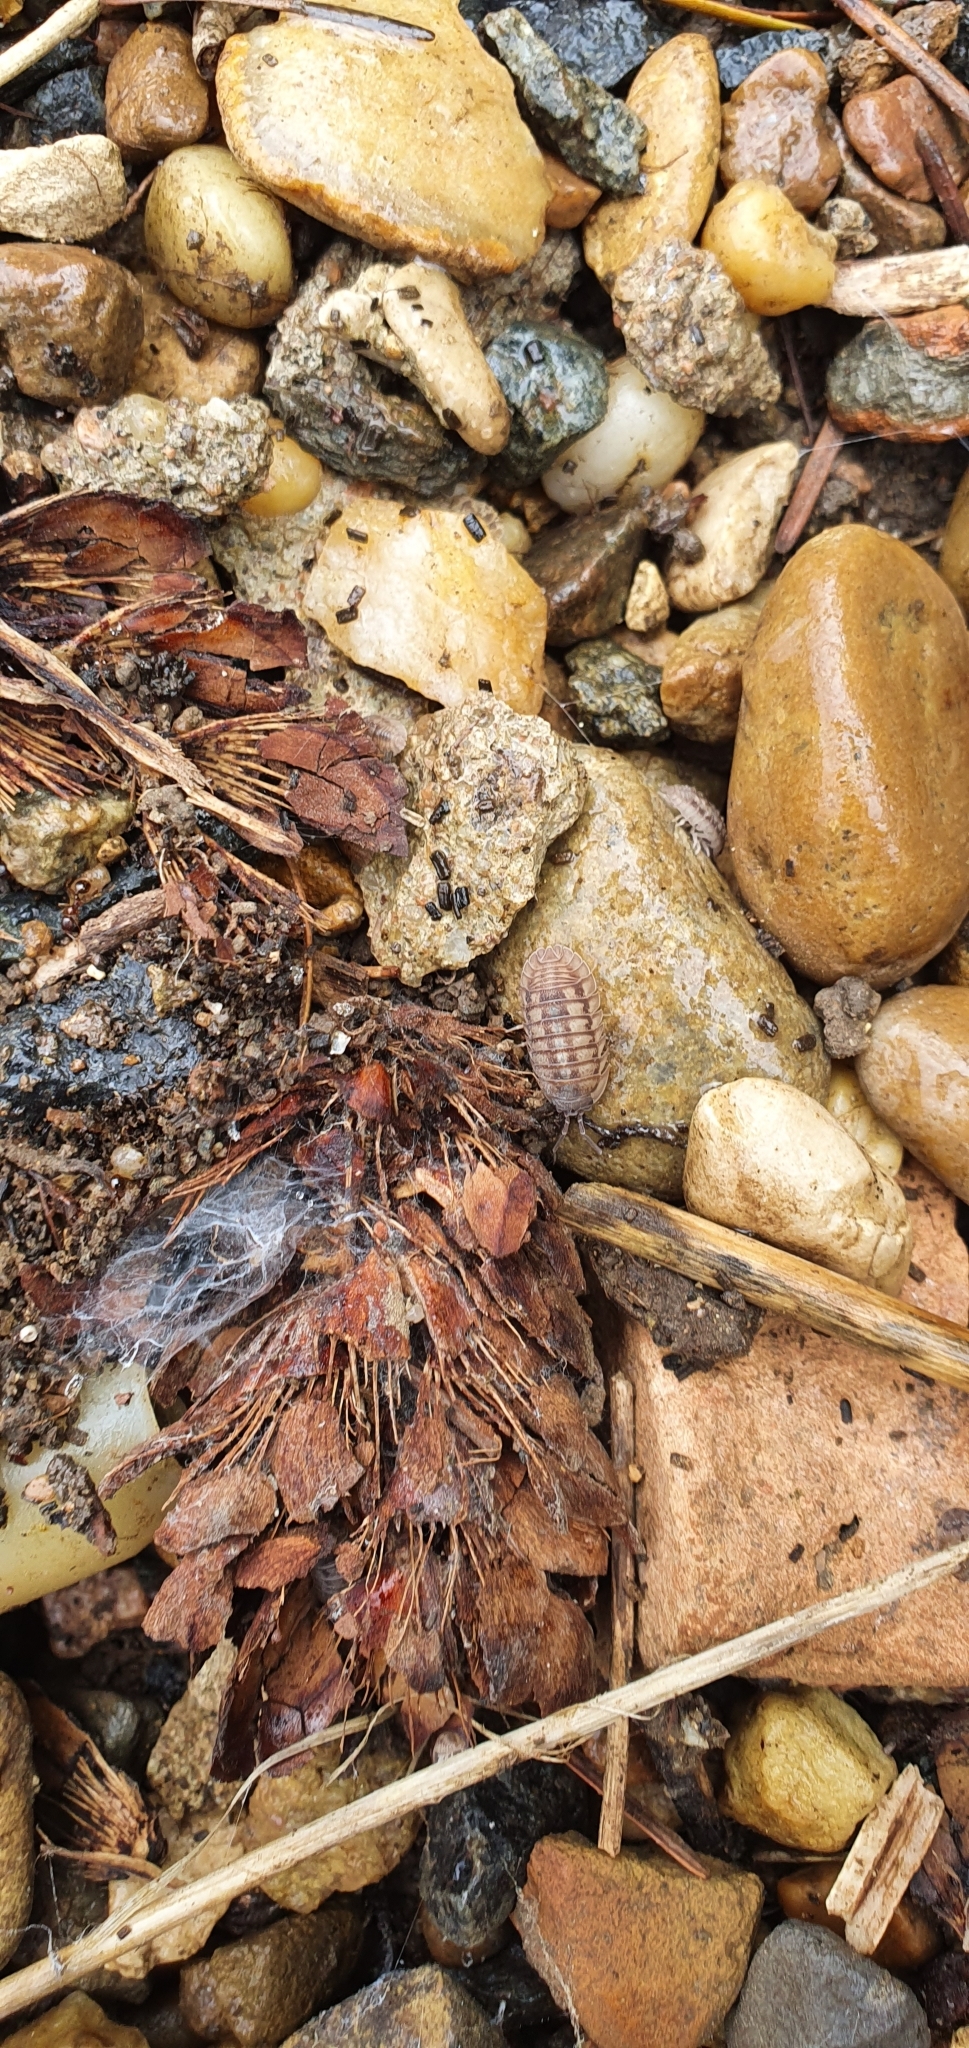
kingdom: Animalia
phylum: Arthropoda
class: Malacostraca
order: Isopoda
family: Armadillidiidae
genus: Armadillidium
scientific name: Armadillidium nasatum
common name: Isopod
